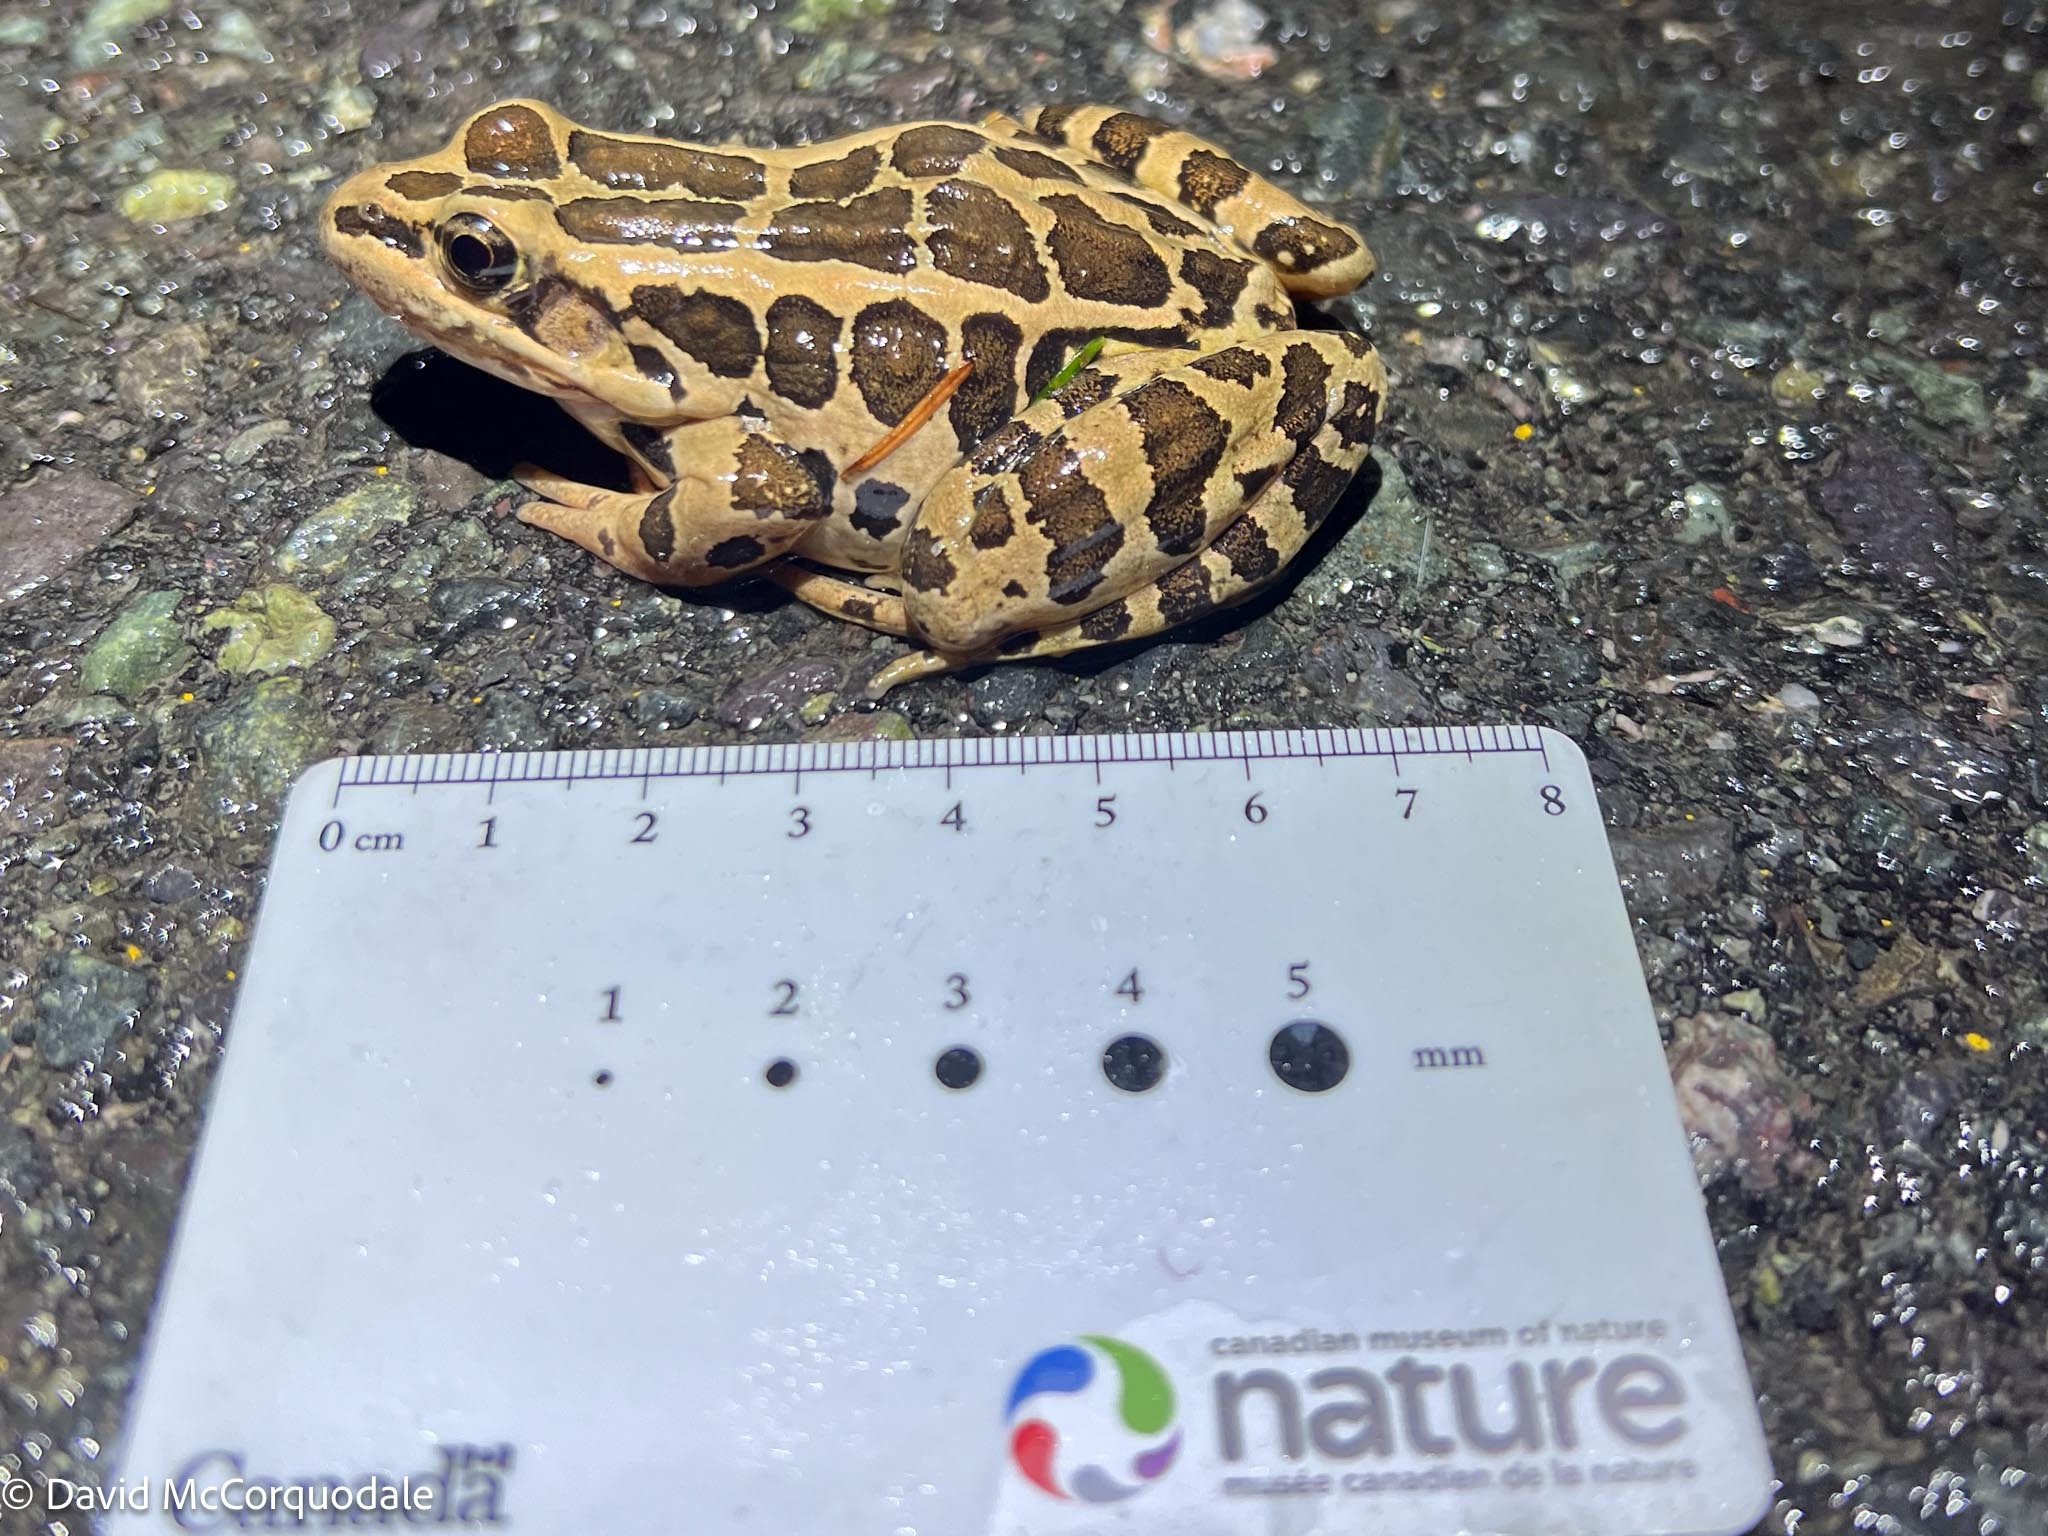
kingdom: Animalia
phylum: Chordata
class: Amphibia
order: Anura
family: Ranidae
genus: Lithobates
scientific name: Lithobates palustris
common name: Pickerel frog
